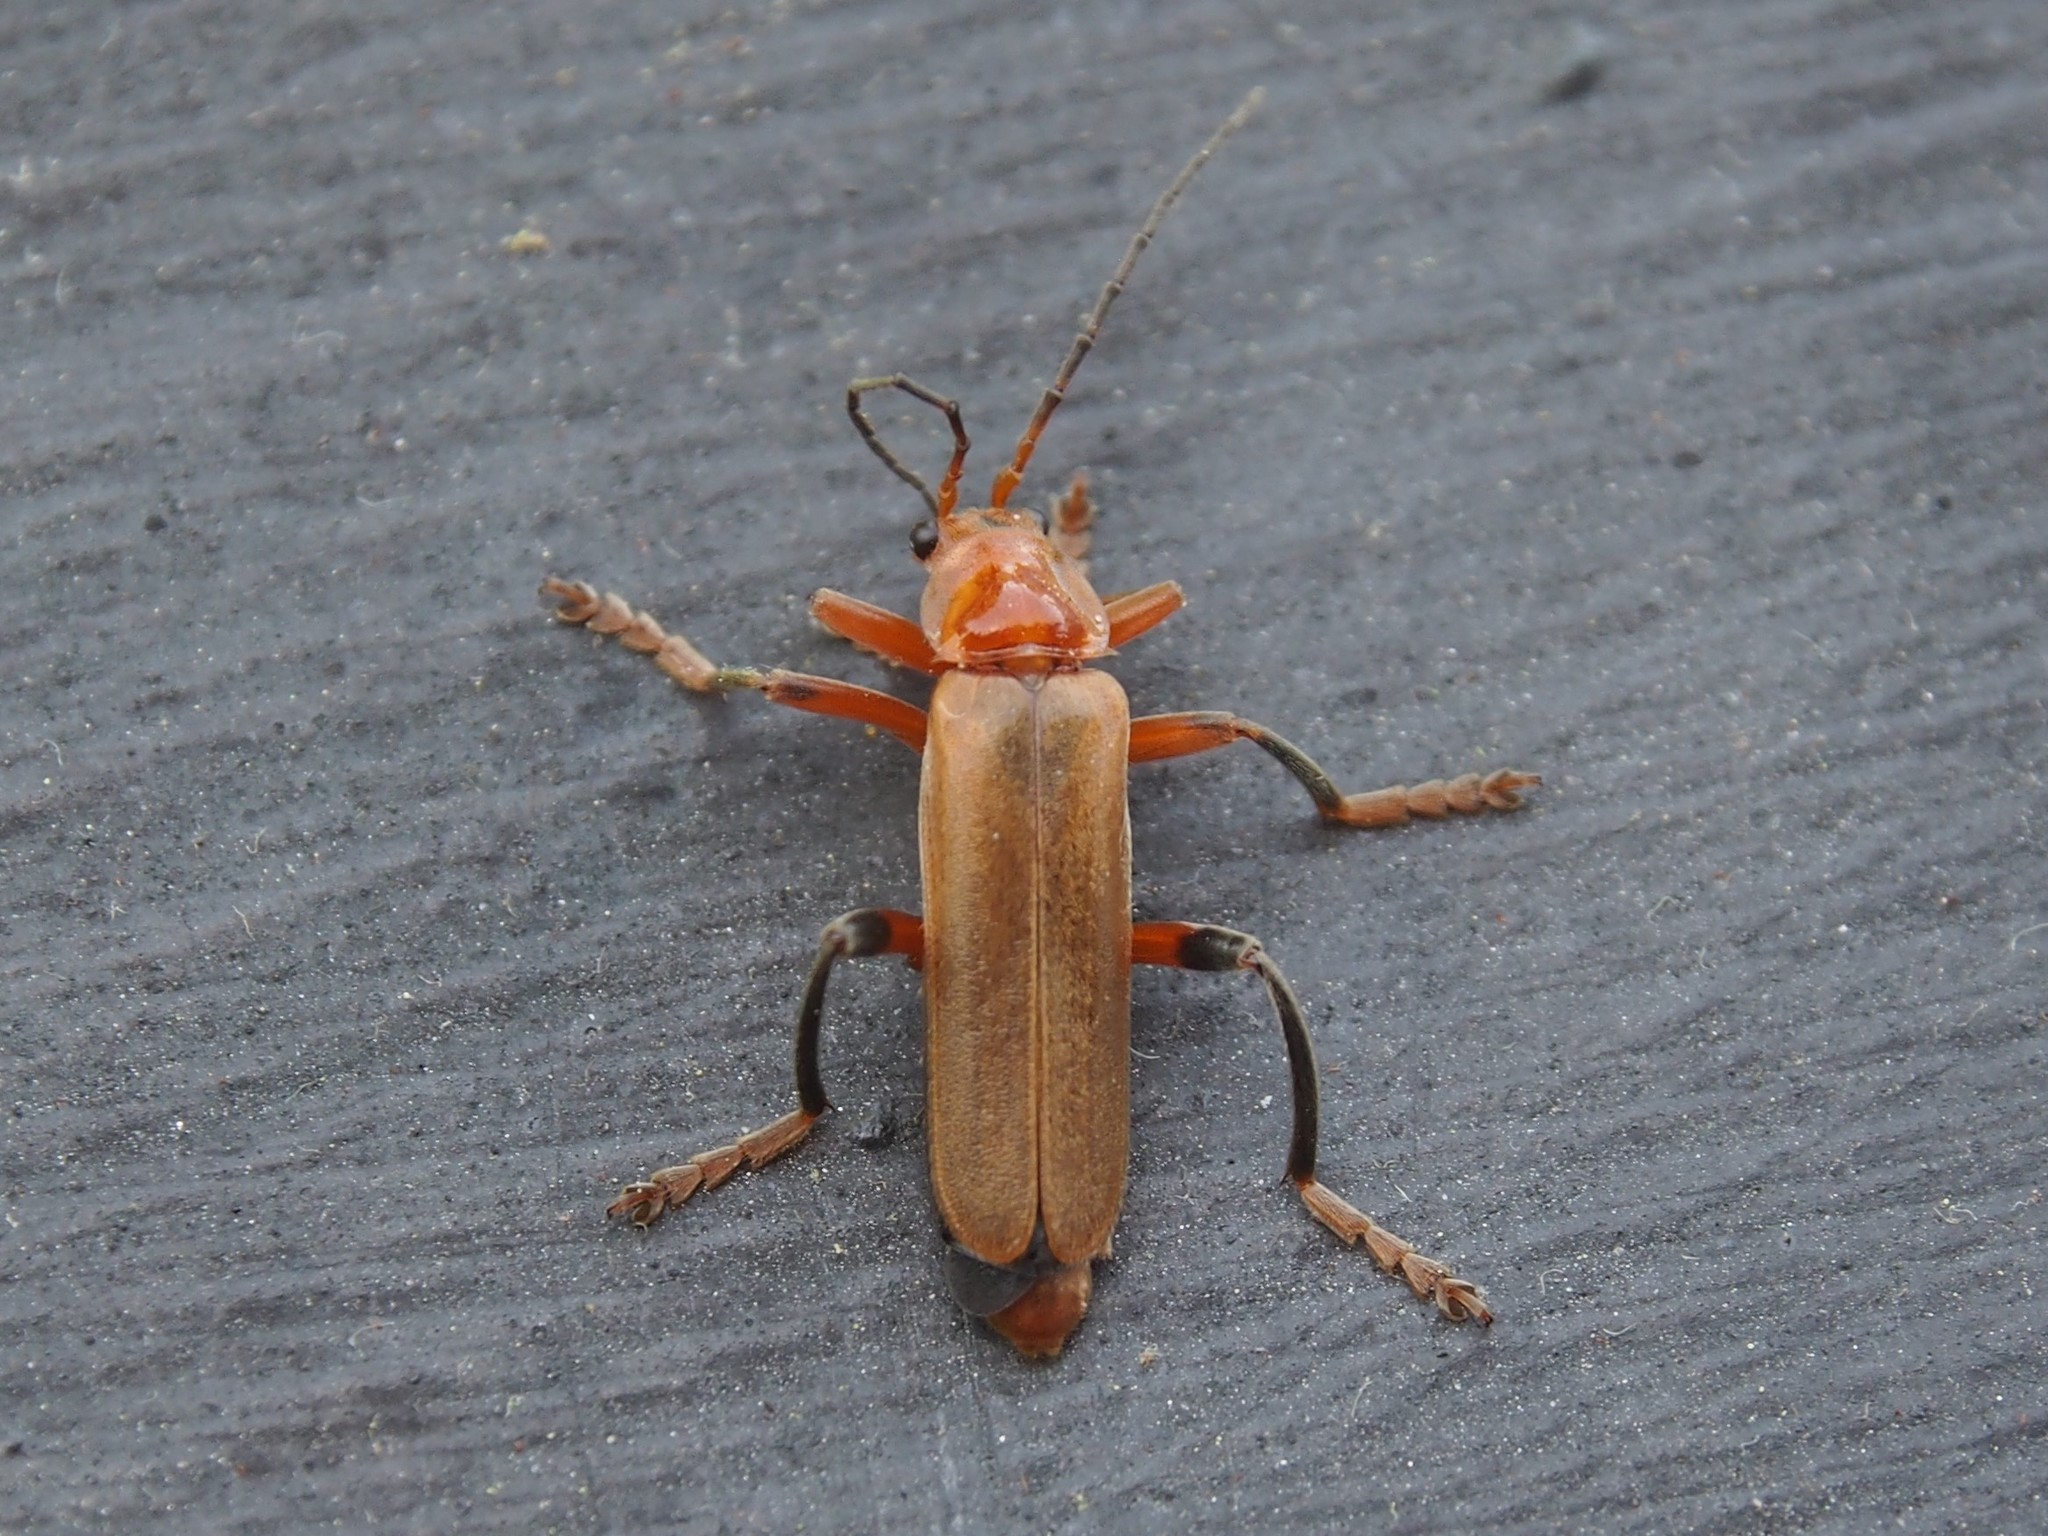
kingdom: Animalia
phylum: Arthropoda
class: Insecta
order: Coleoptera
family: Cantharidae
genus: Cantharis
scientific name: Cantharis livida
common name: Livid soldier beetle
